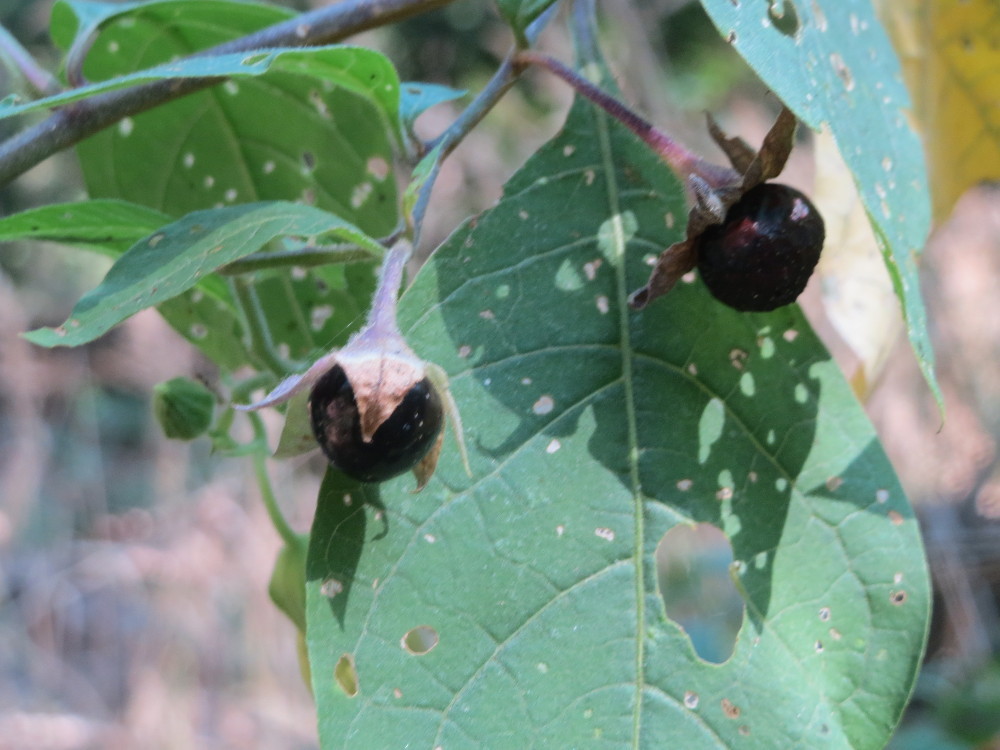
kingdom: Plantae
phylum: Tracheophyta
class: Magnoliopsida
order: Solanales
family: Solanaceae
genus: Atropa
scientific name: Atropa belladonna
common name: Deadly nightshade
